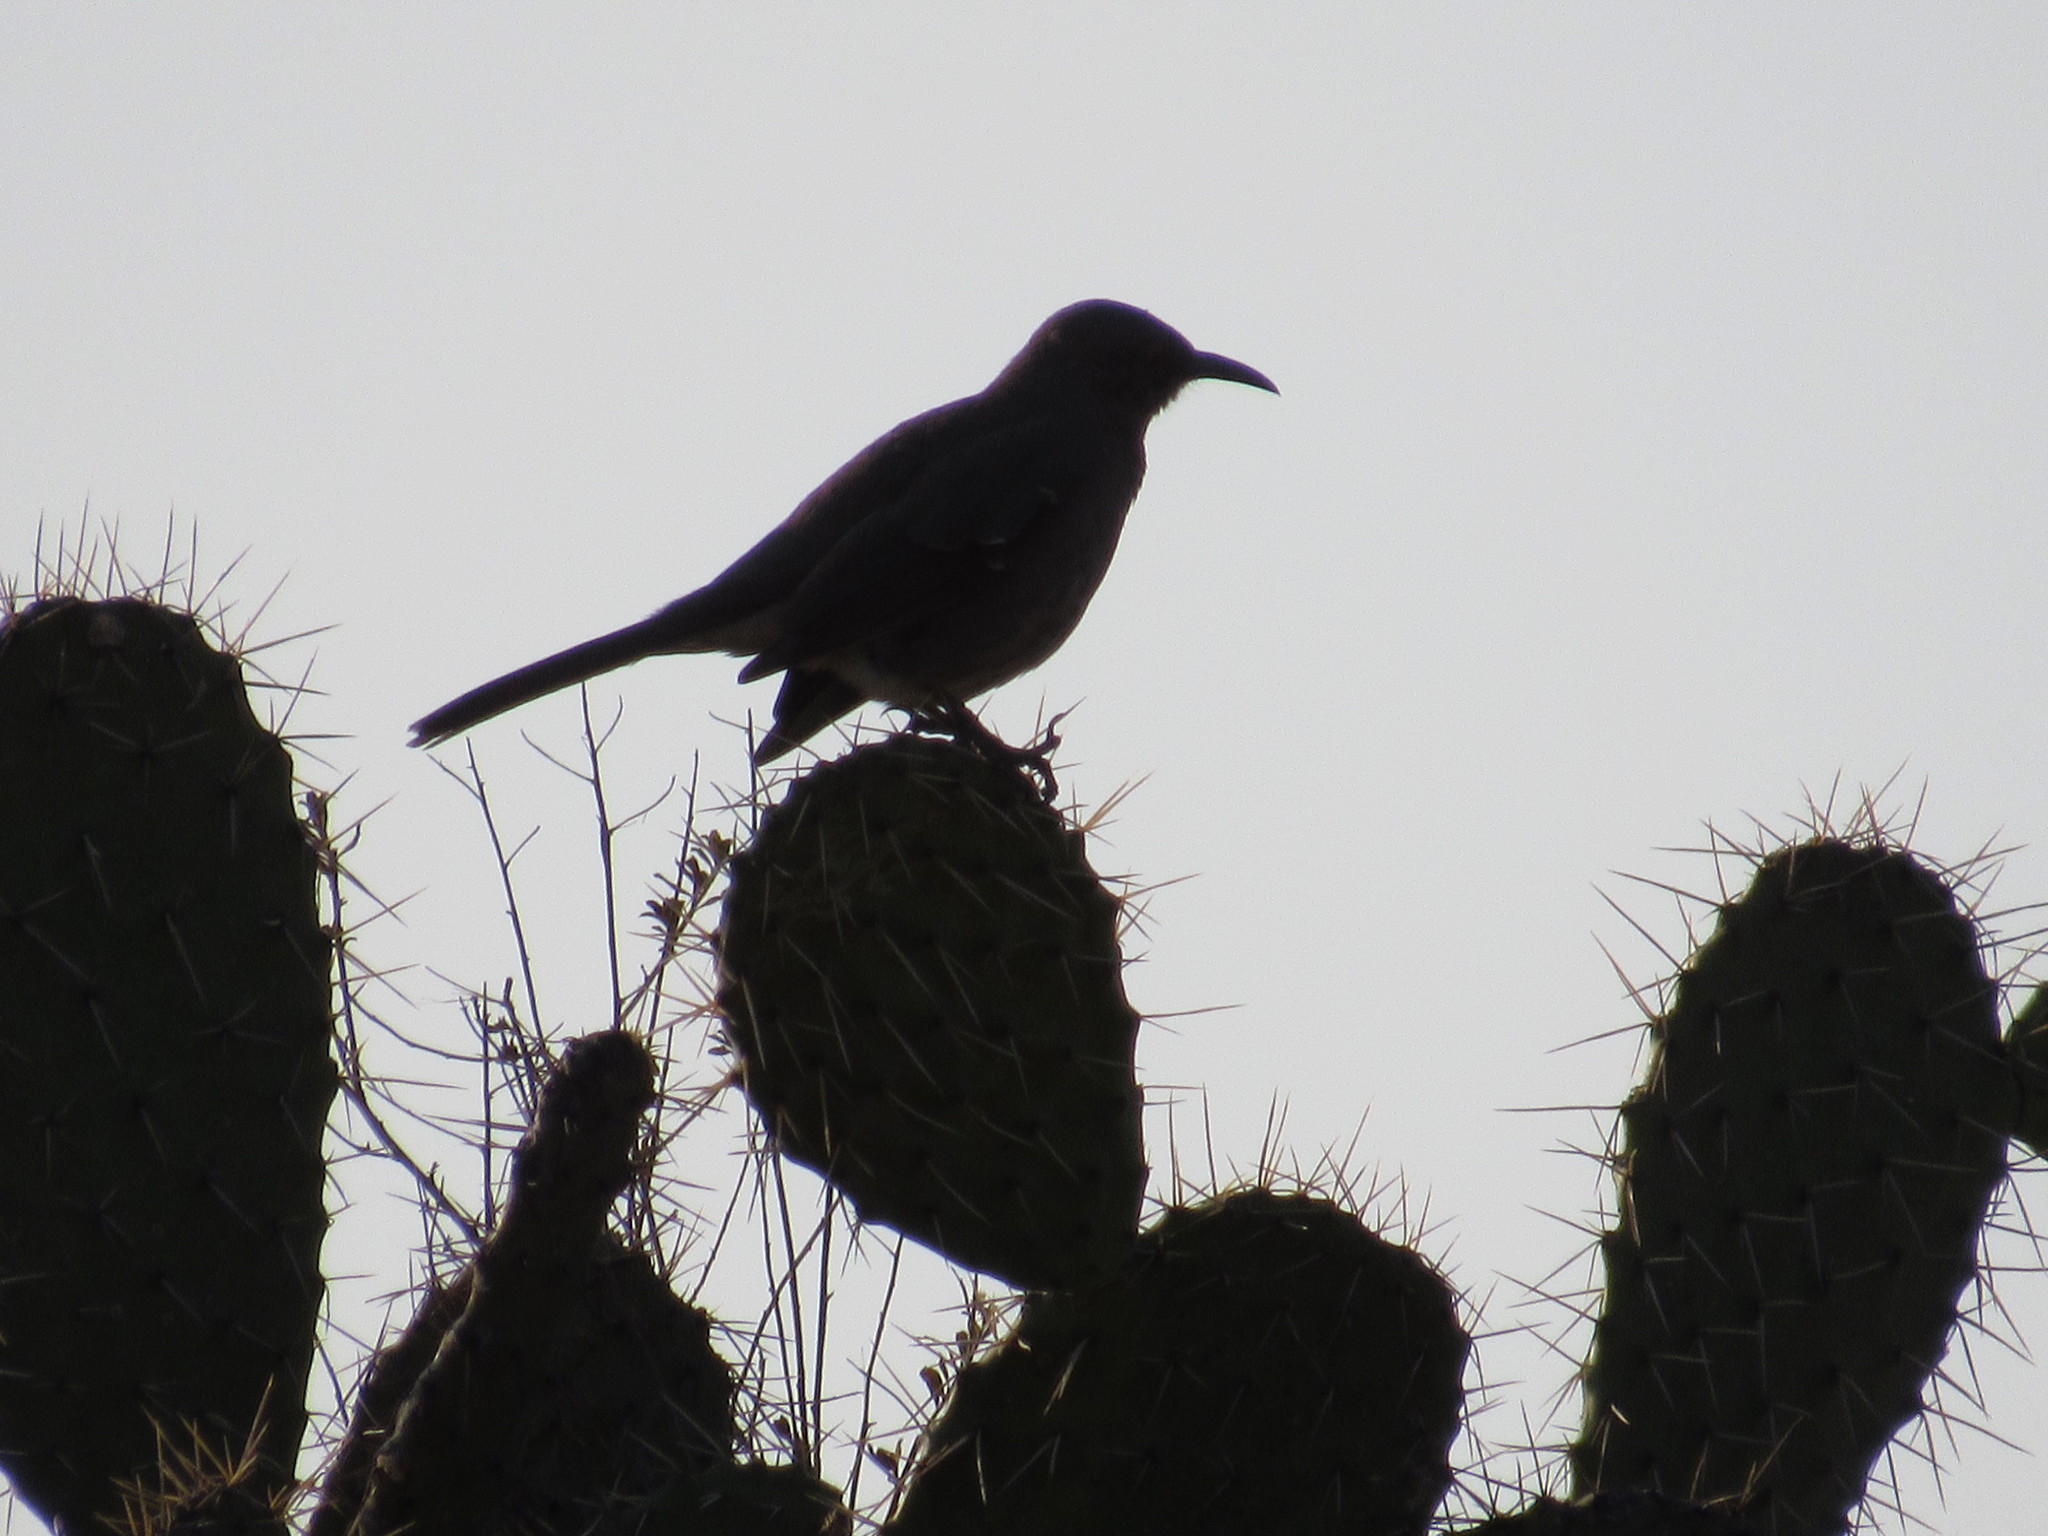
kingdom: Animalia
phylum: Chordata
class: Aves
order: Passeriformes
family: Mimidae
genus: Toxostoma
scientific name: Toxostoma curvirostre
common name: Curve-billed thrasher
